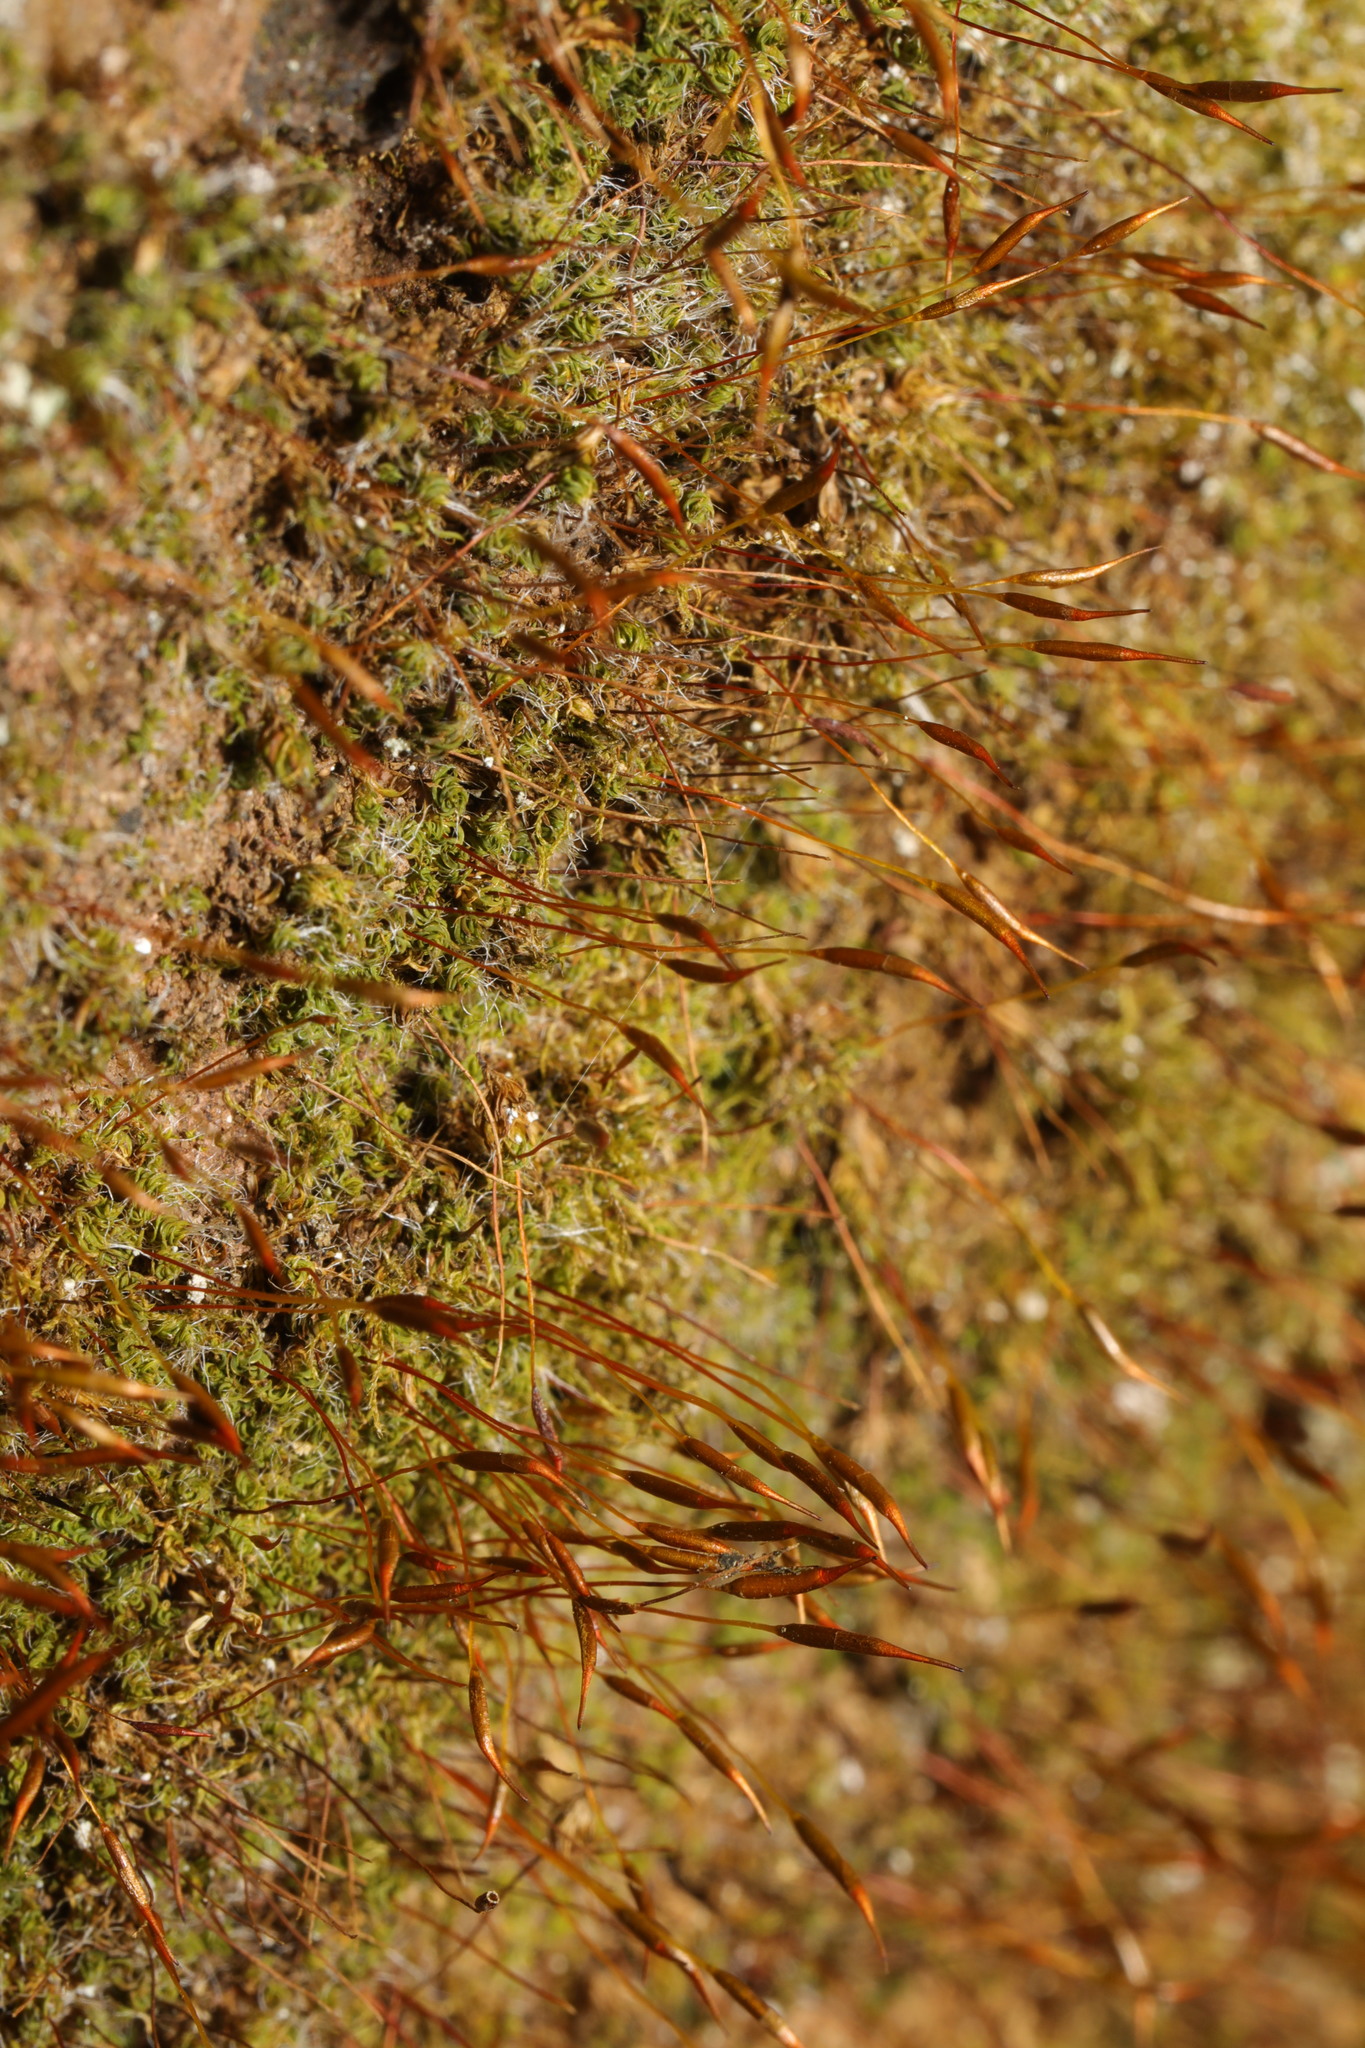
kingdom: Plantae
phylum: Bryophyta
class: Bryopsida
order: Pottiales
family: Pottiaceae
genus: Tortula
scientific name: Tortula muralis
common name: Wall screw-moss
